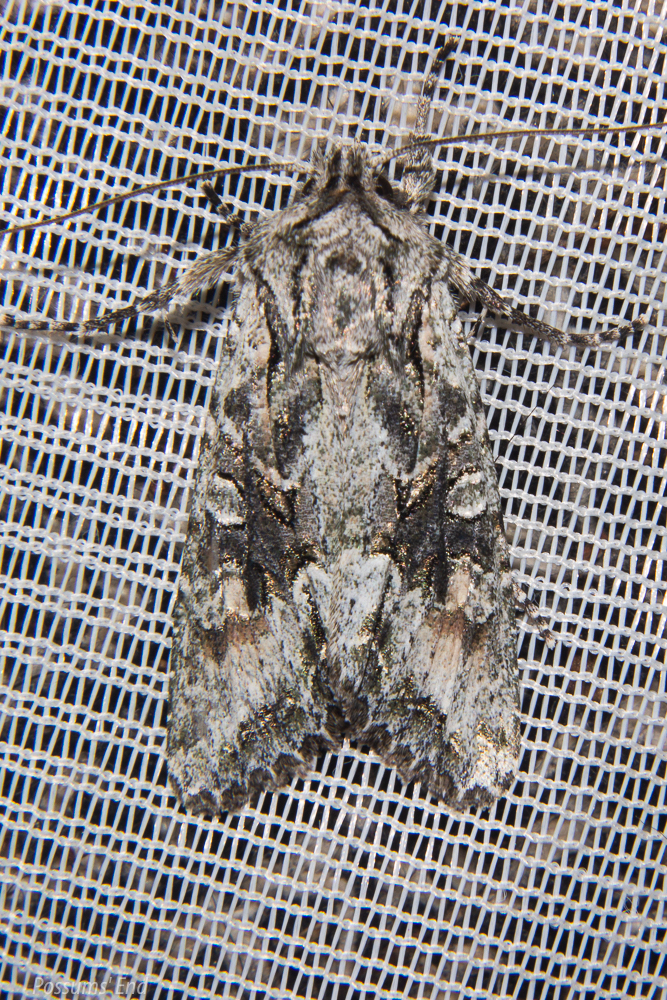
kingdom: Animalia
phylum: Arthropoda
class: Insecta
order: Lepidoptera
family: Noctuidae
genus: Ichneutica
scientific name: Ichneutica mutans
